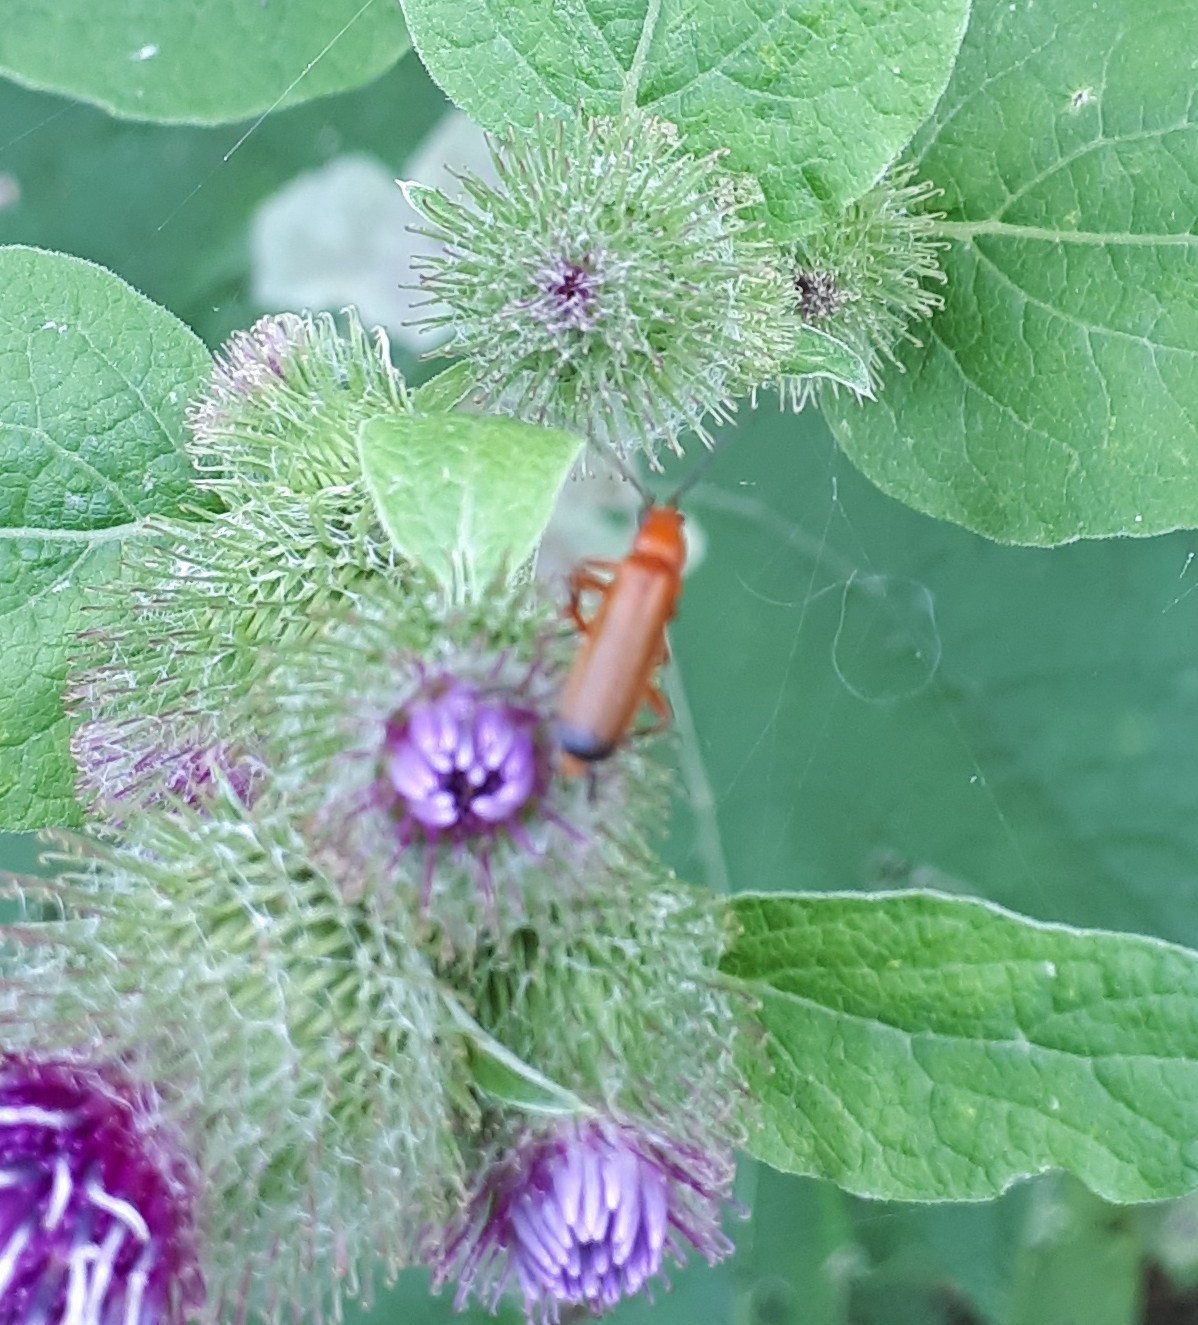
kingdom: Animalia
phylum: Arthropoda
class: Insecta
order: Coleoptera
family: Cantharidae
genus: Rhagonycha
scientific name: Rhagonycha fulva
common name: Common red soldier beetle
